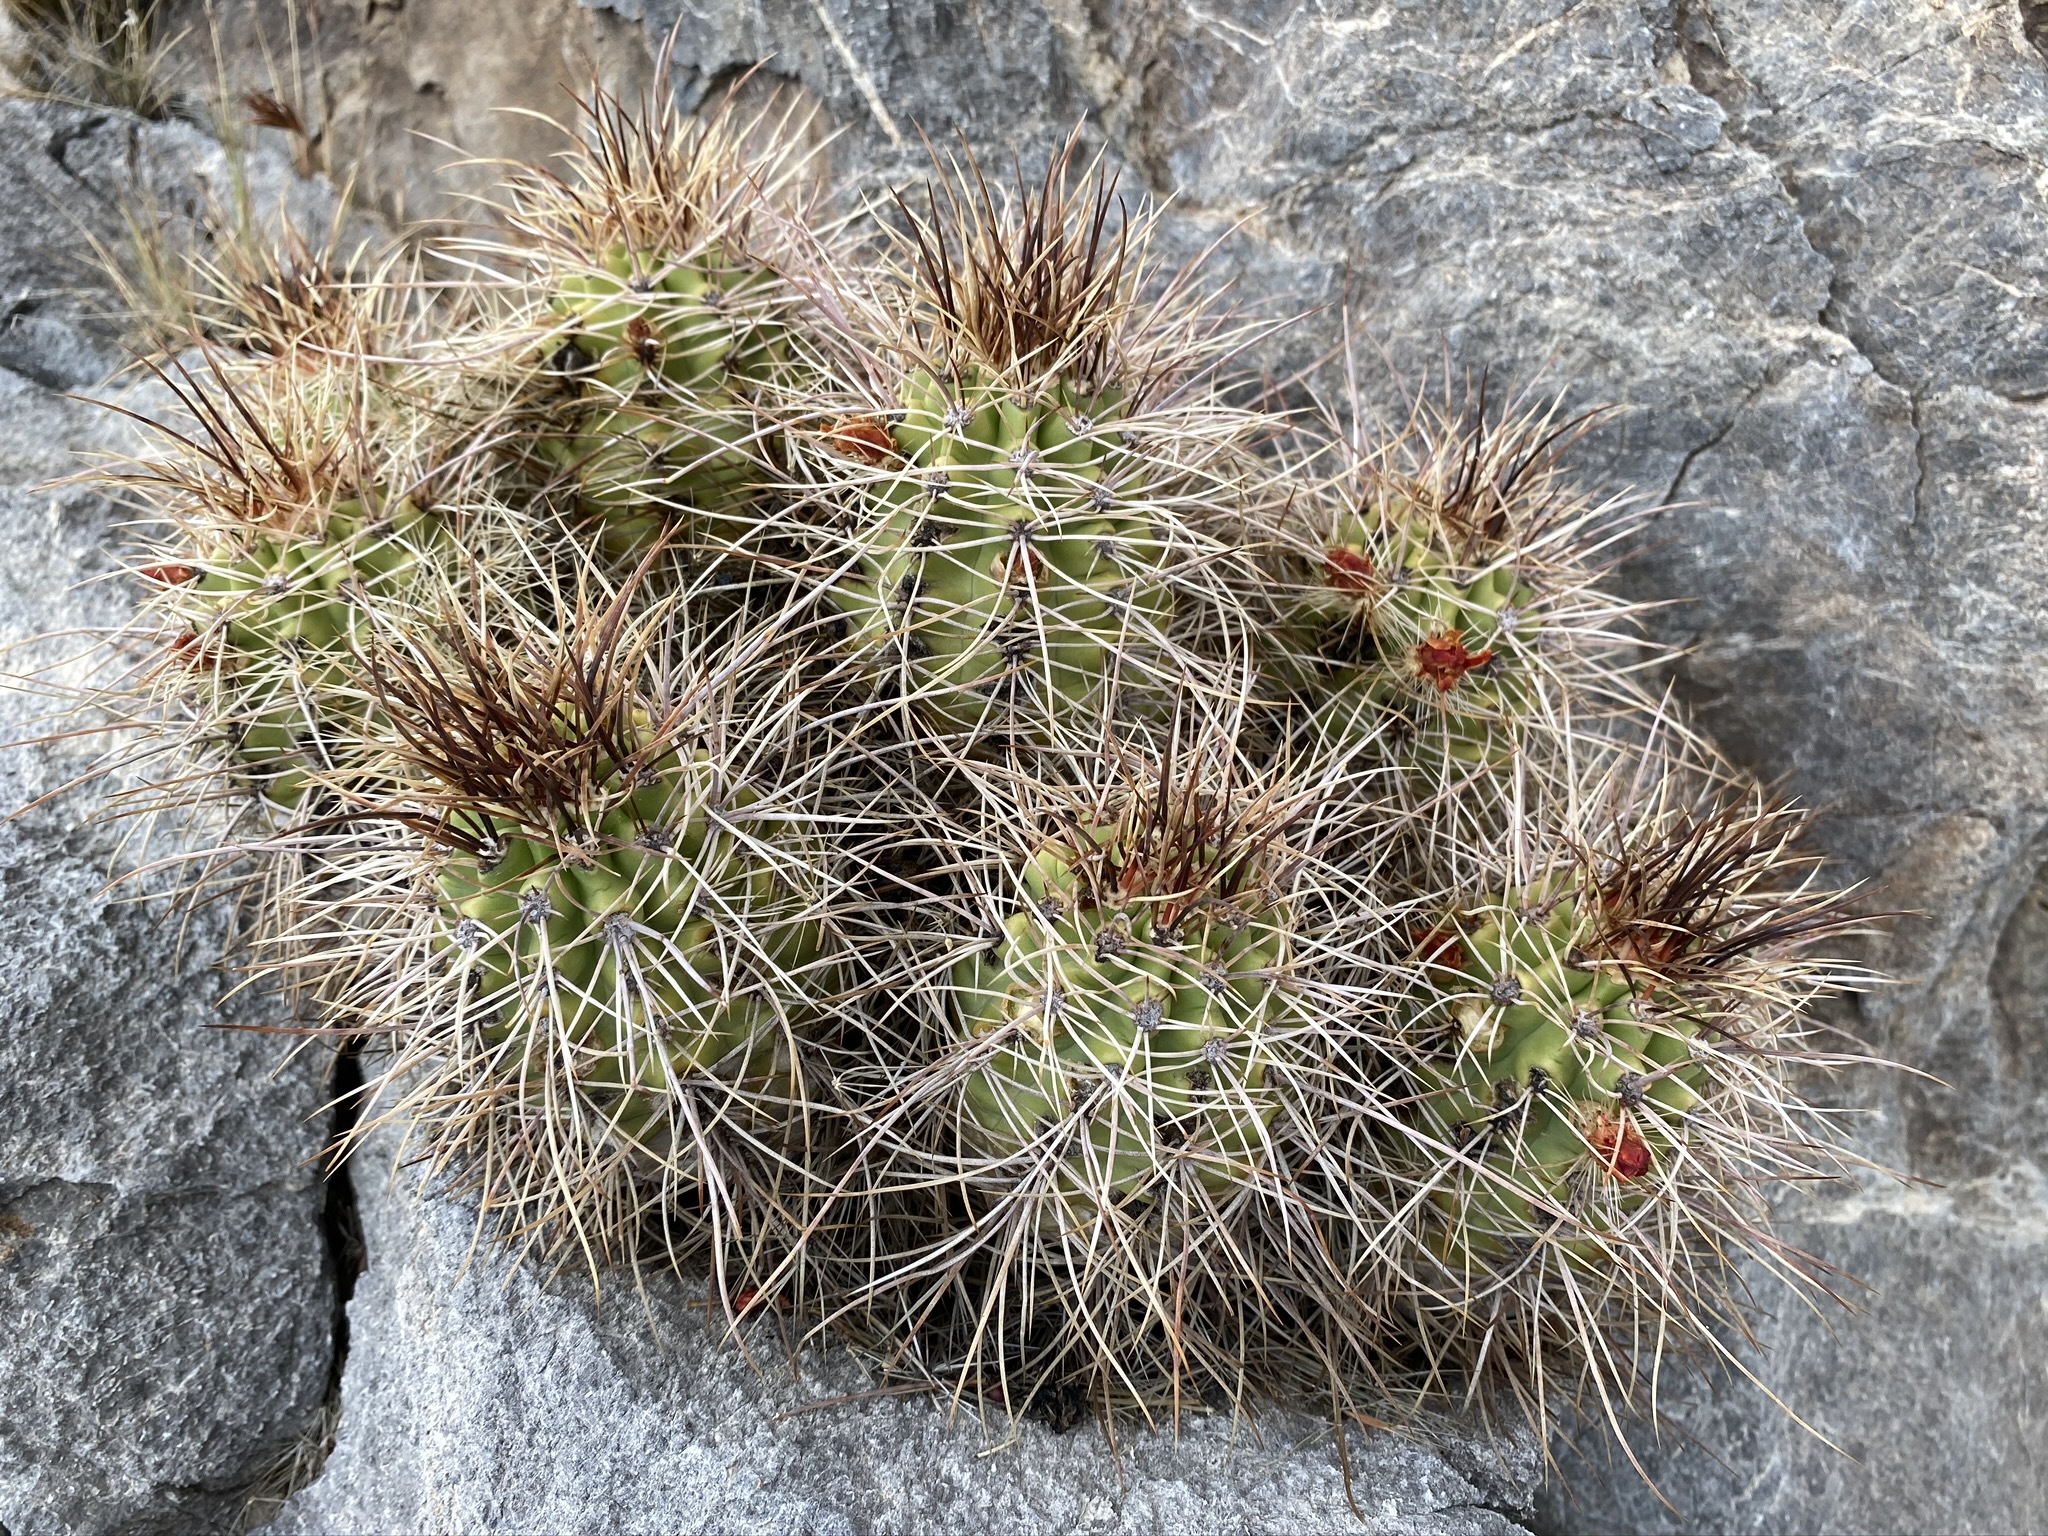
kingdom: Plantae
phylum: Tracheophyta
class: Magnoliopsida
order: Caryophyllales
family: Cactaceae
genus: Echinocereus
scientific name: Echinocereus triglochidiatus
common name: Claretcup hedgehog
